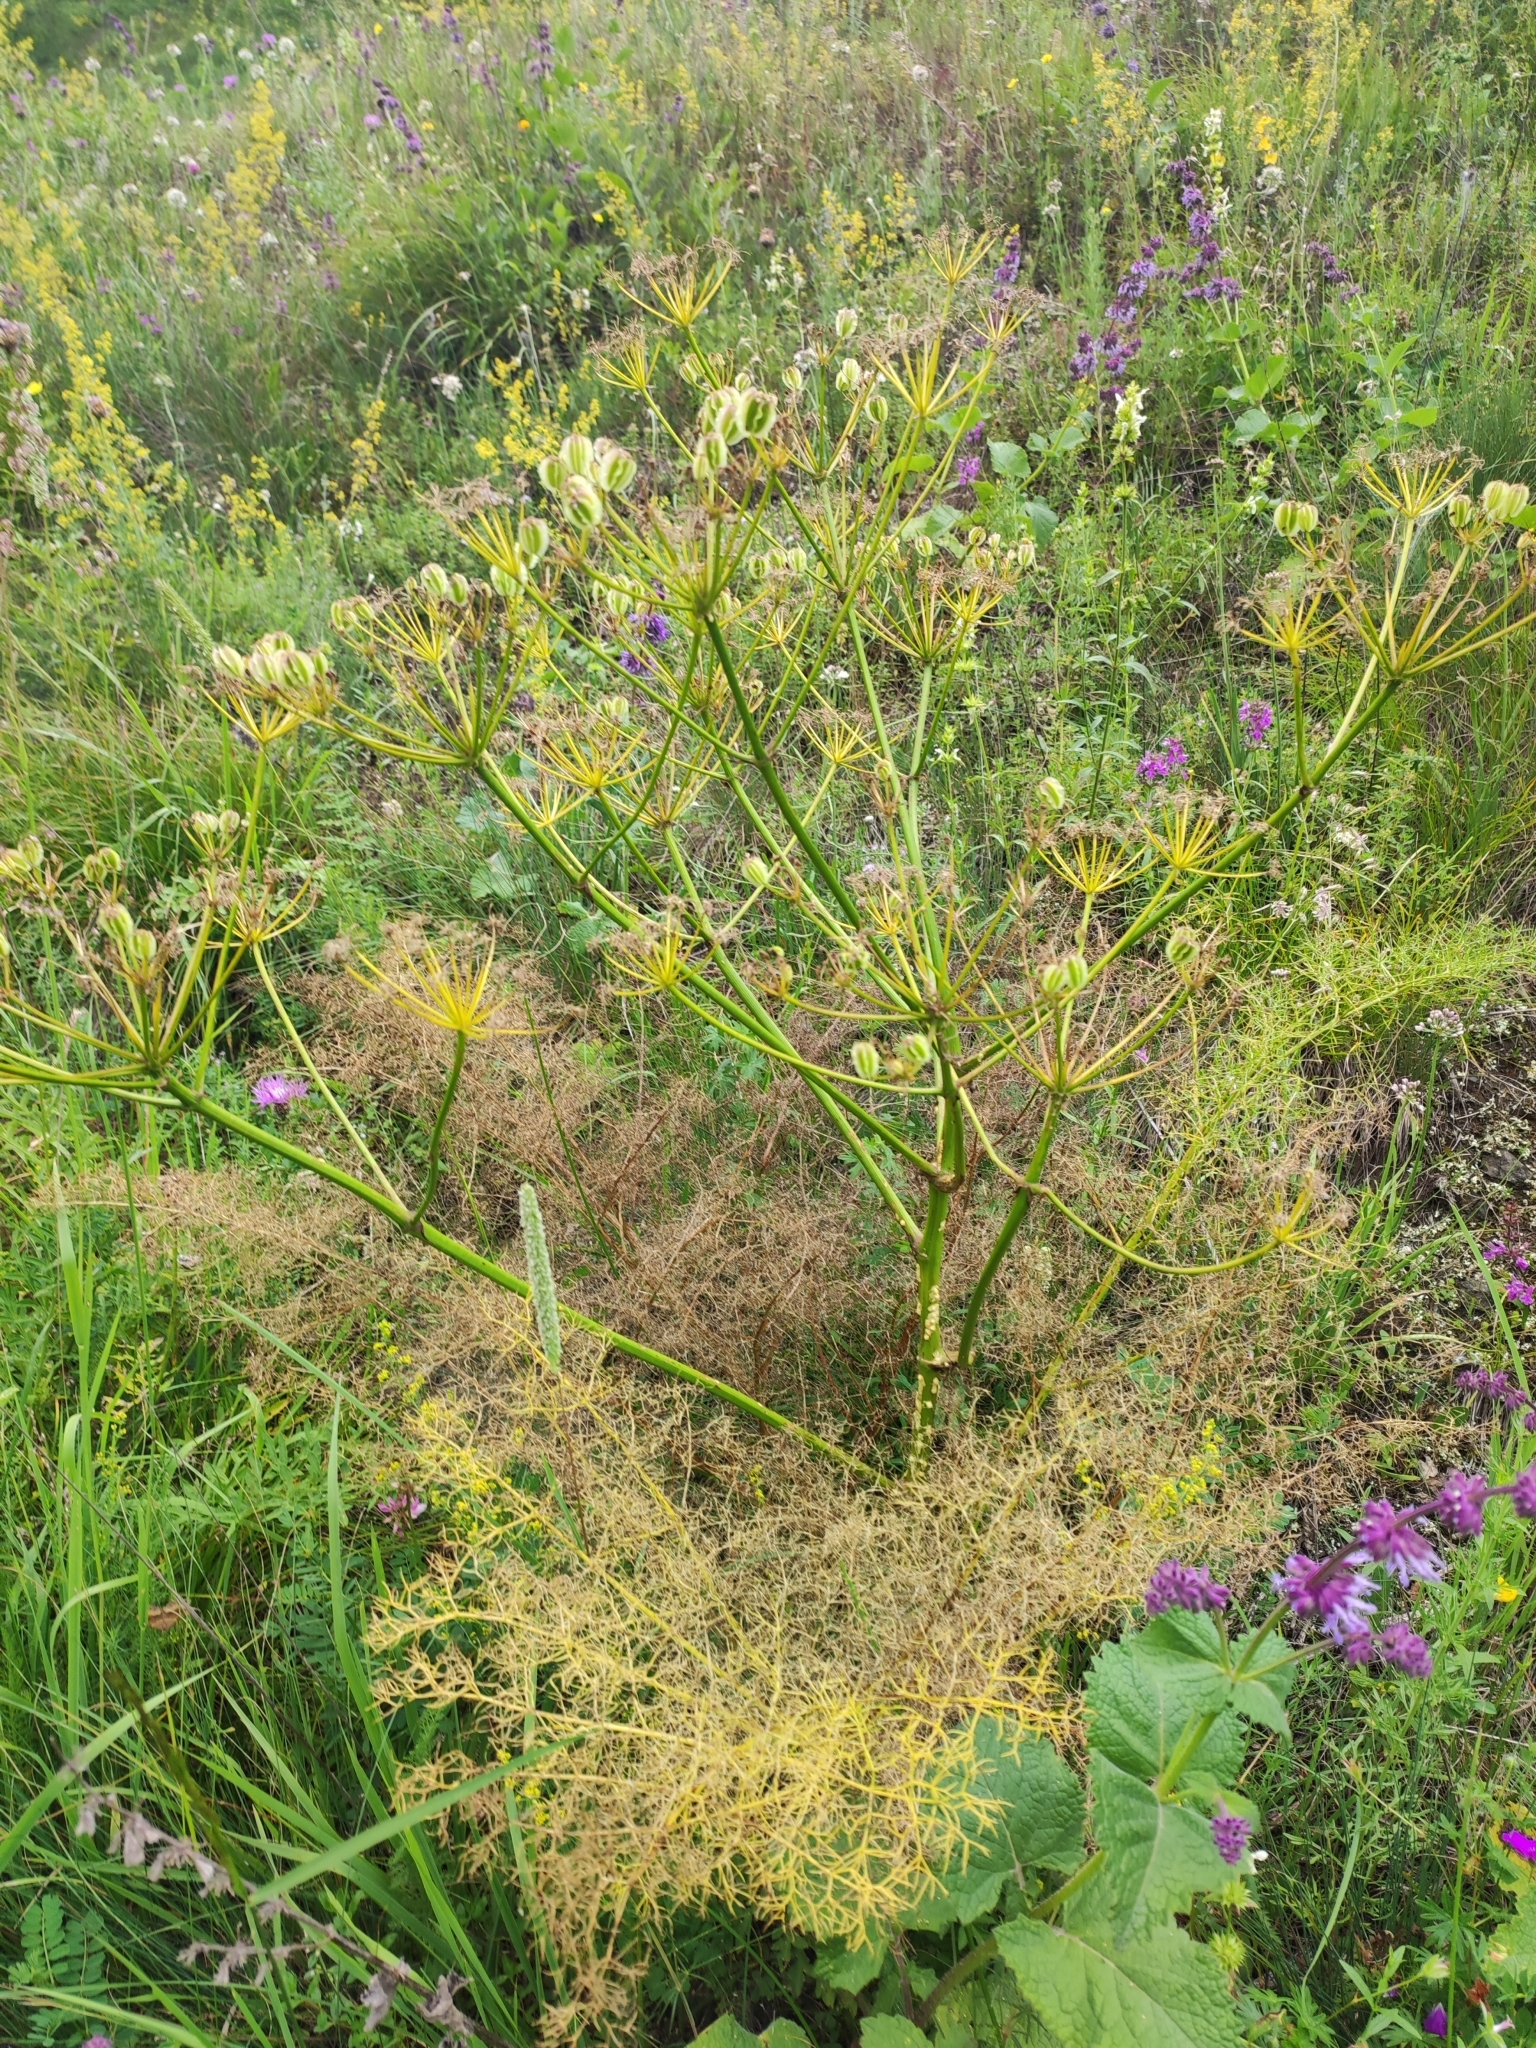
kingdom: Plantae
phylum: Tracheophyta
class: Magnoliopsida
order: Apiales
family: Apiaceae
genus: Prangos
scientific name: Prangos ferulacea
